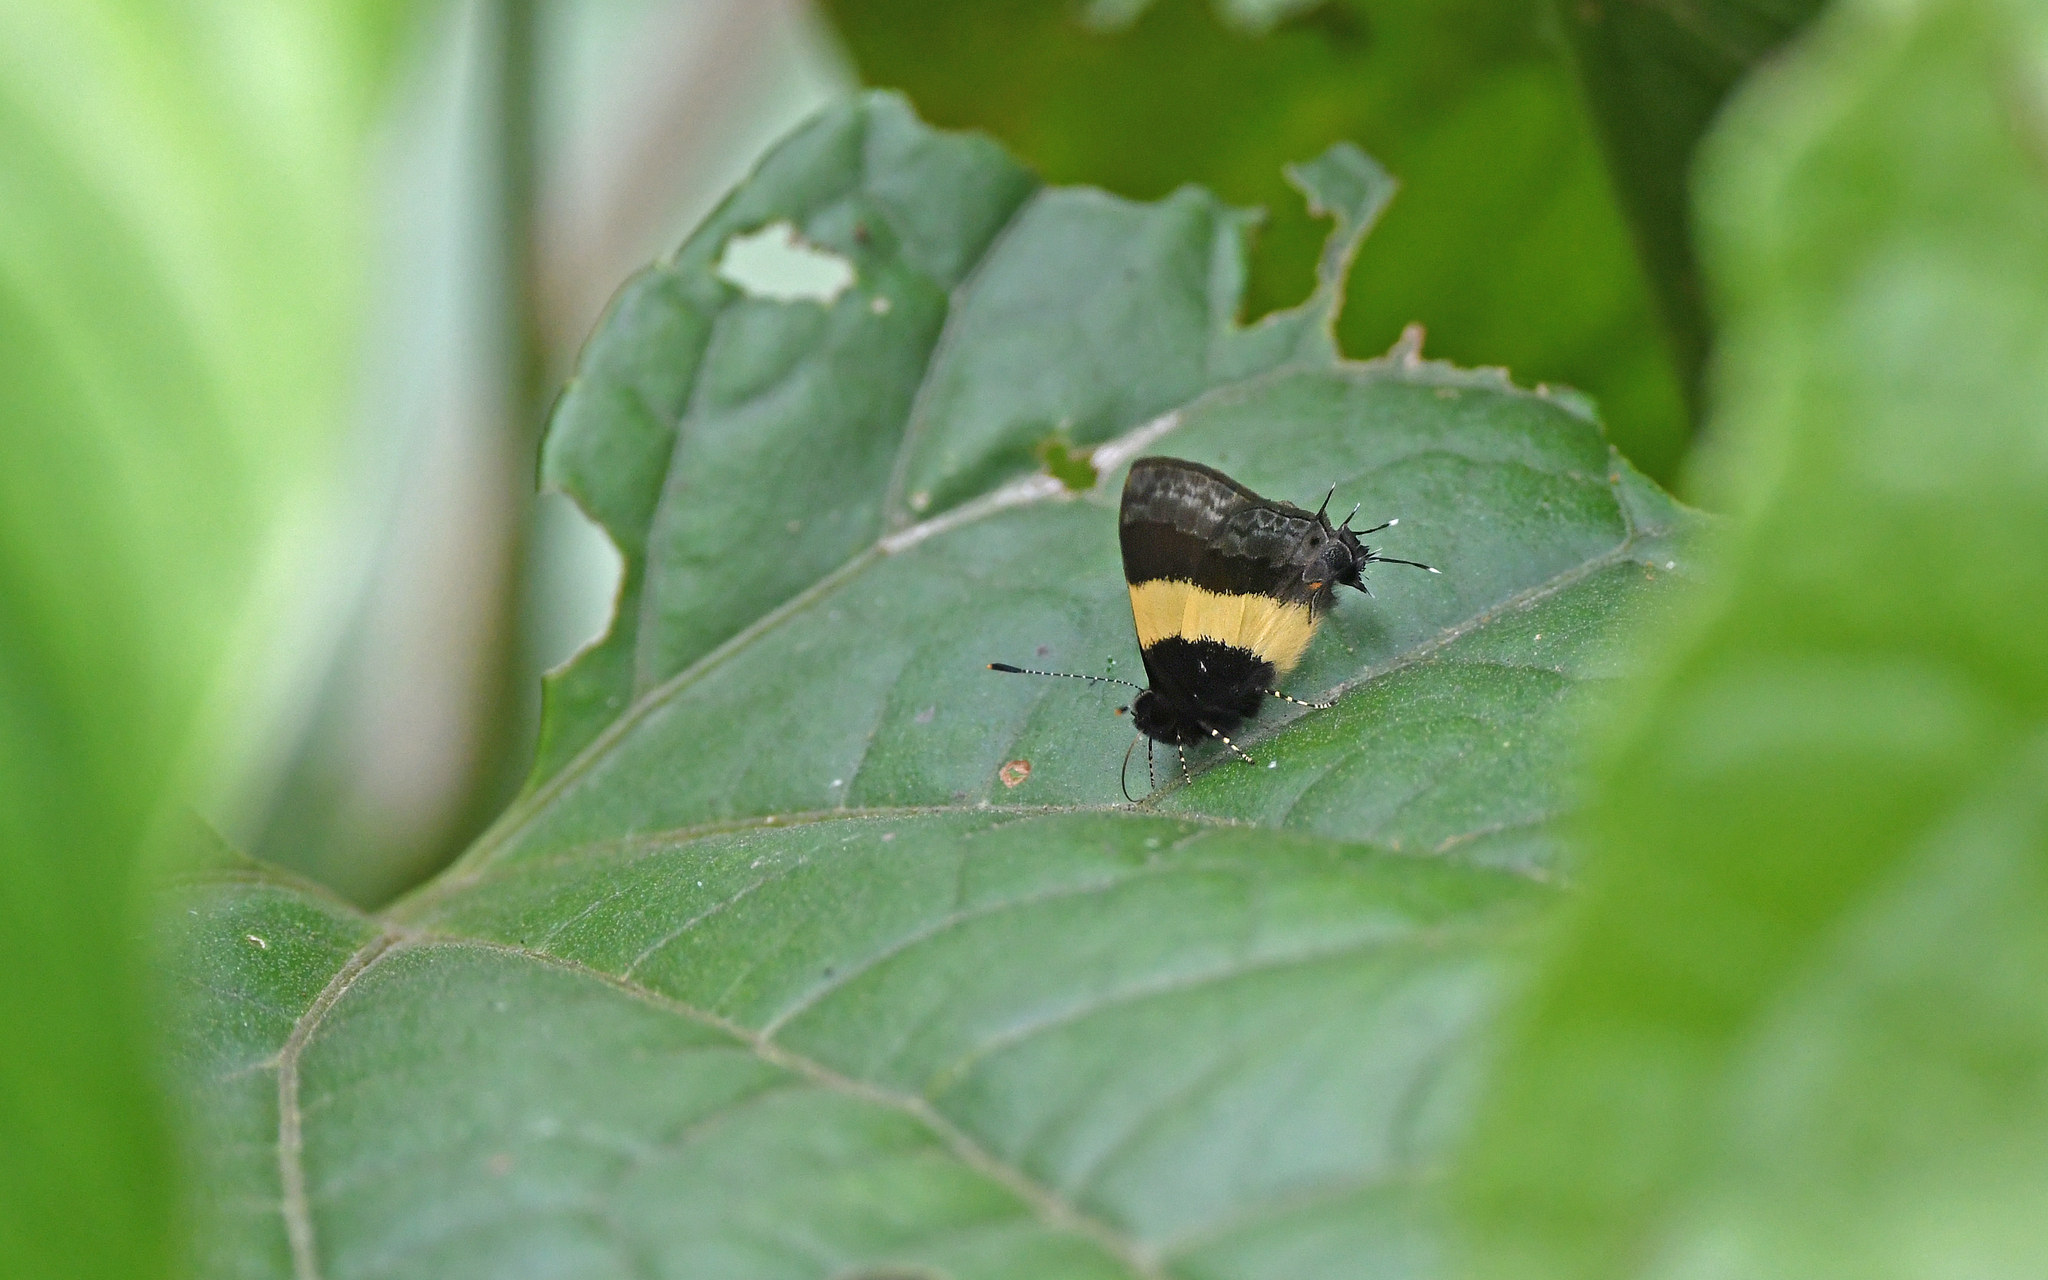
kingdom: Animalia
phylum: Arthropoda
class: Insecta
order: Lepidoptera
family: Lycaenidae
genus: Thecla
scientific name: Thecla taminella
